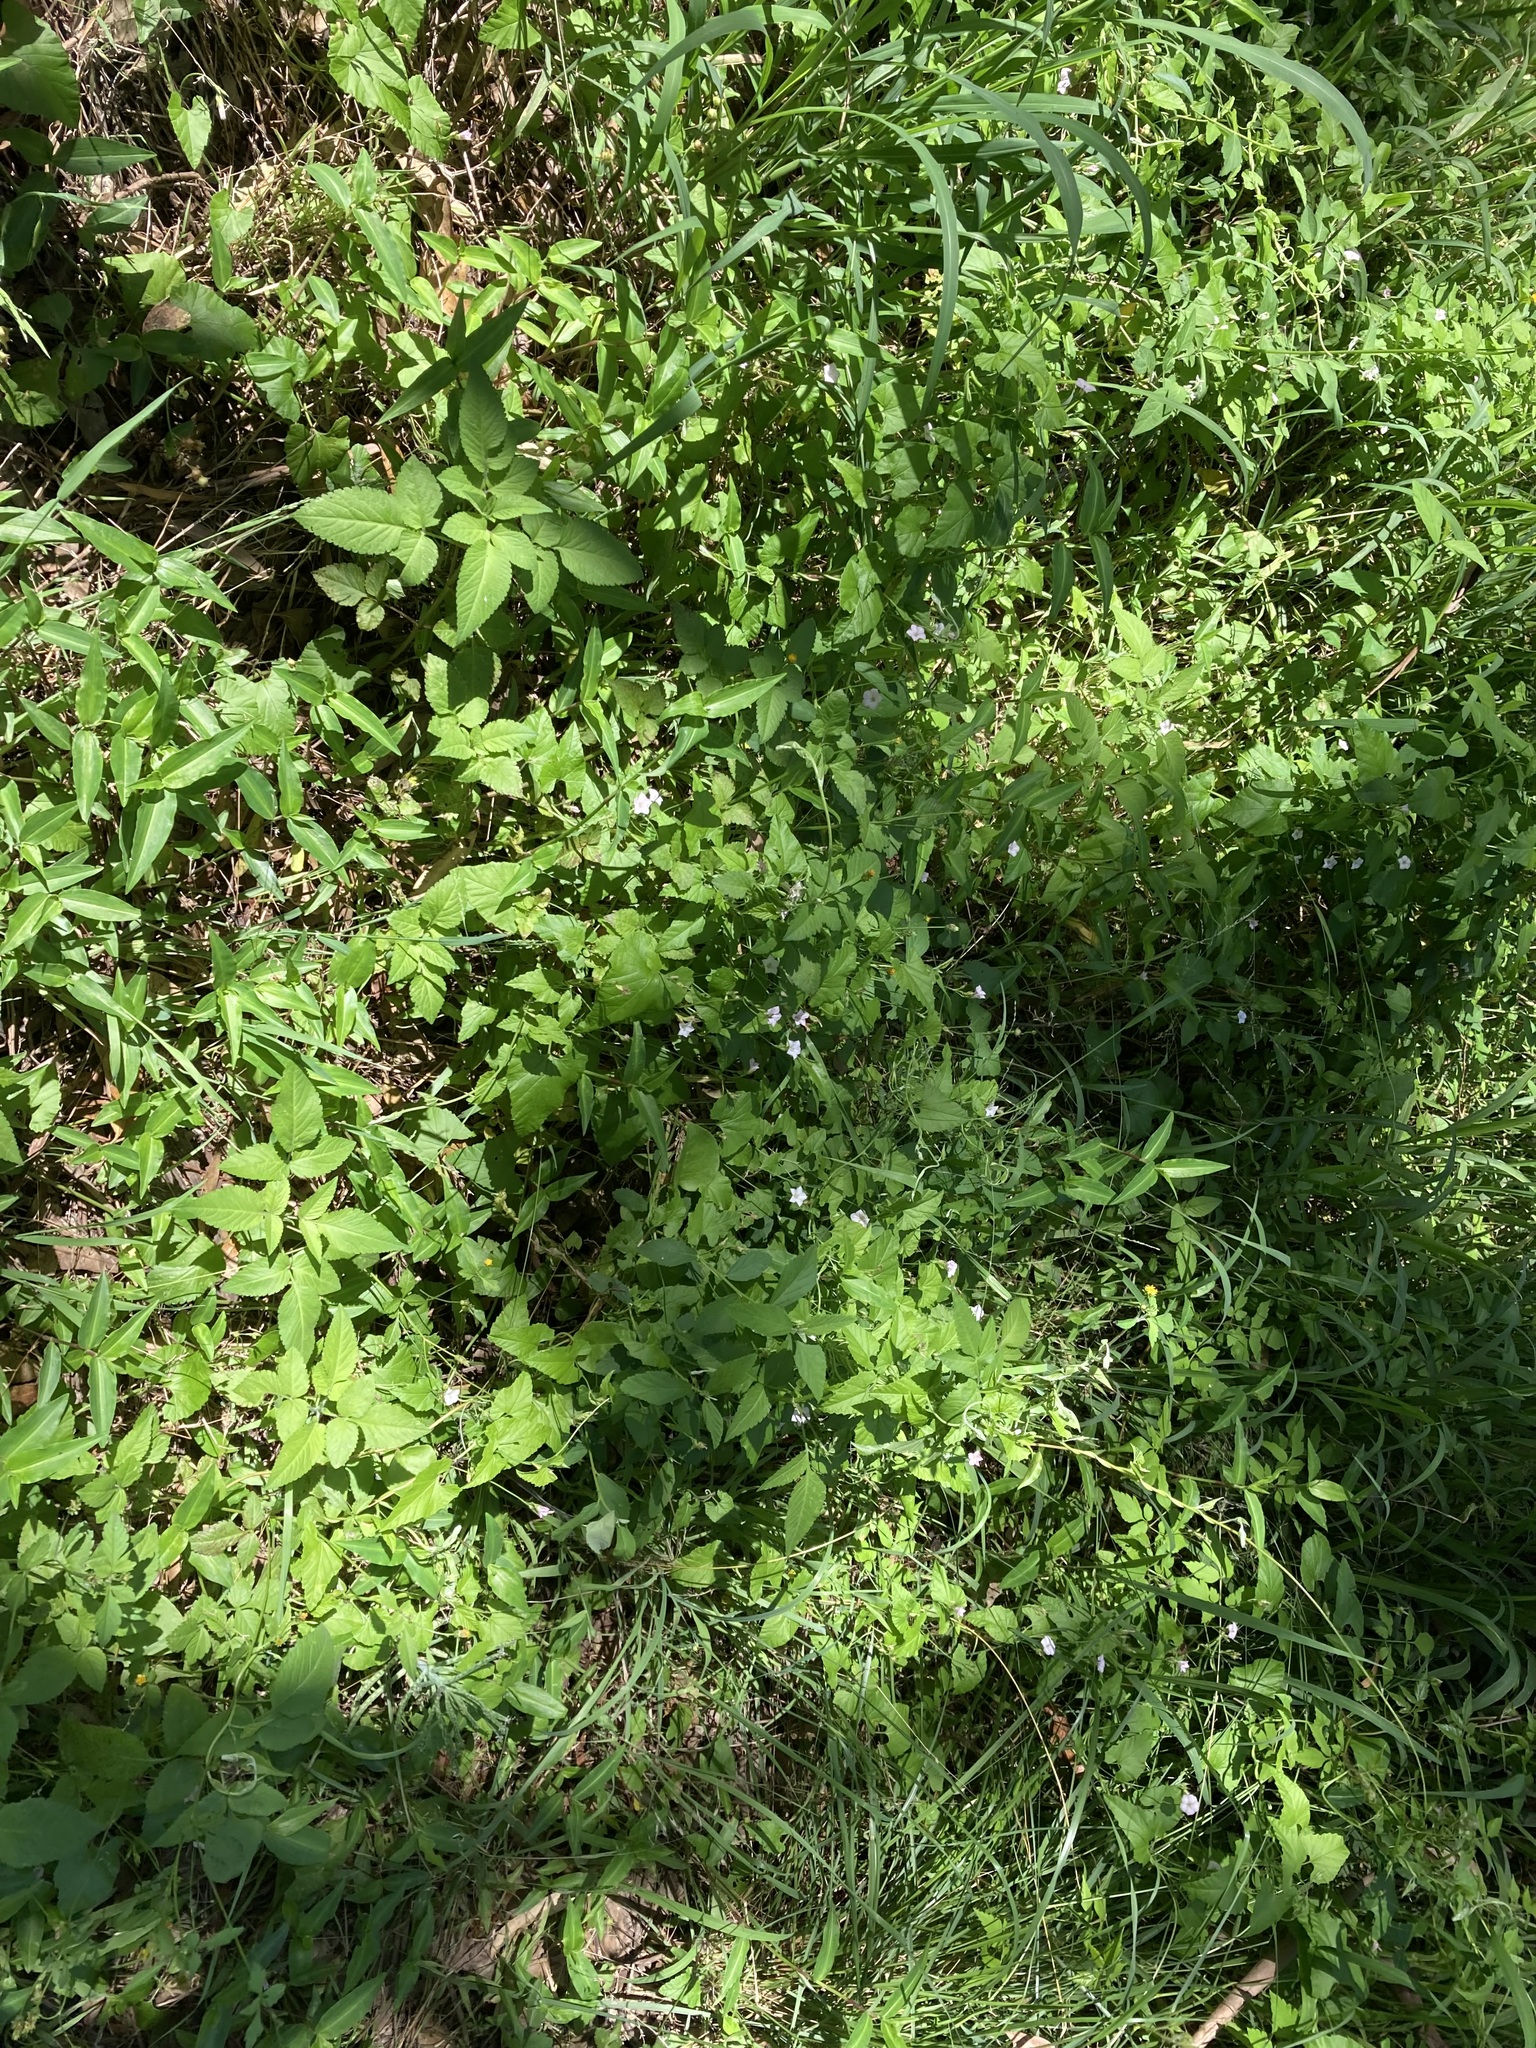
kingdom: Plantae
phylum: Tracheophyta
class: Magnoliopsida
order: Solanales
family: Convolvulaceae
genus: Convolvulus
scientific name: Convolvulus farinosus
